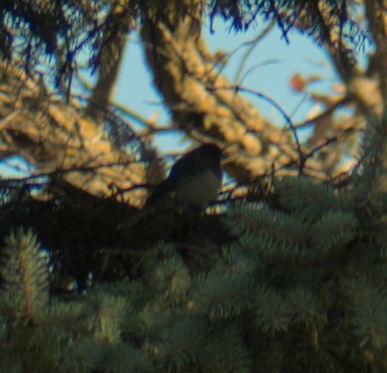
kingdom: Animalia
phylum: Chordata
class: Aves
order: Passeriformes
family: Passerellidae
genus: Junco
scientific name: Junco hyemalis
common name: Dark-eyed junco
